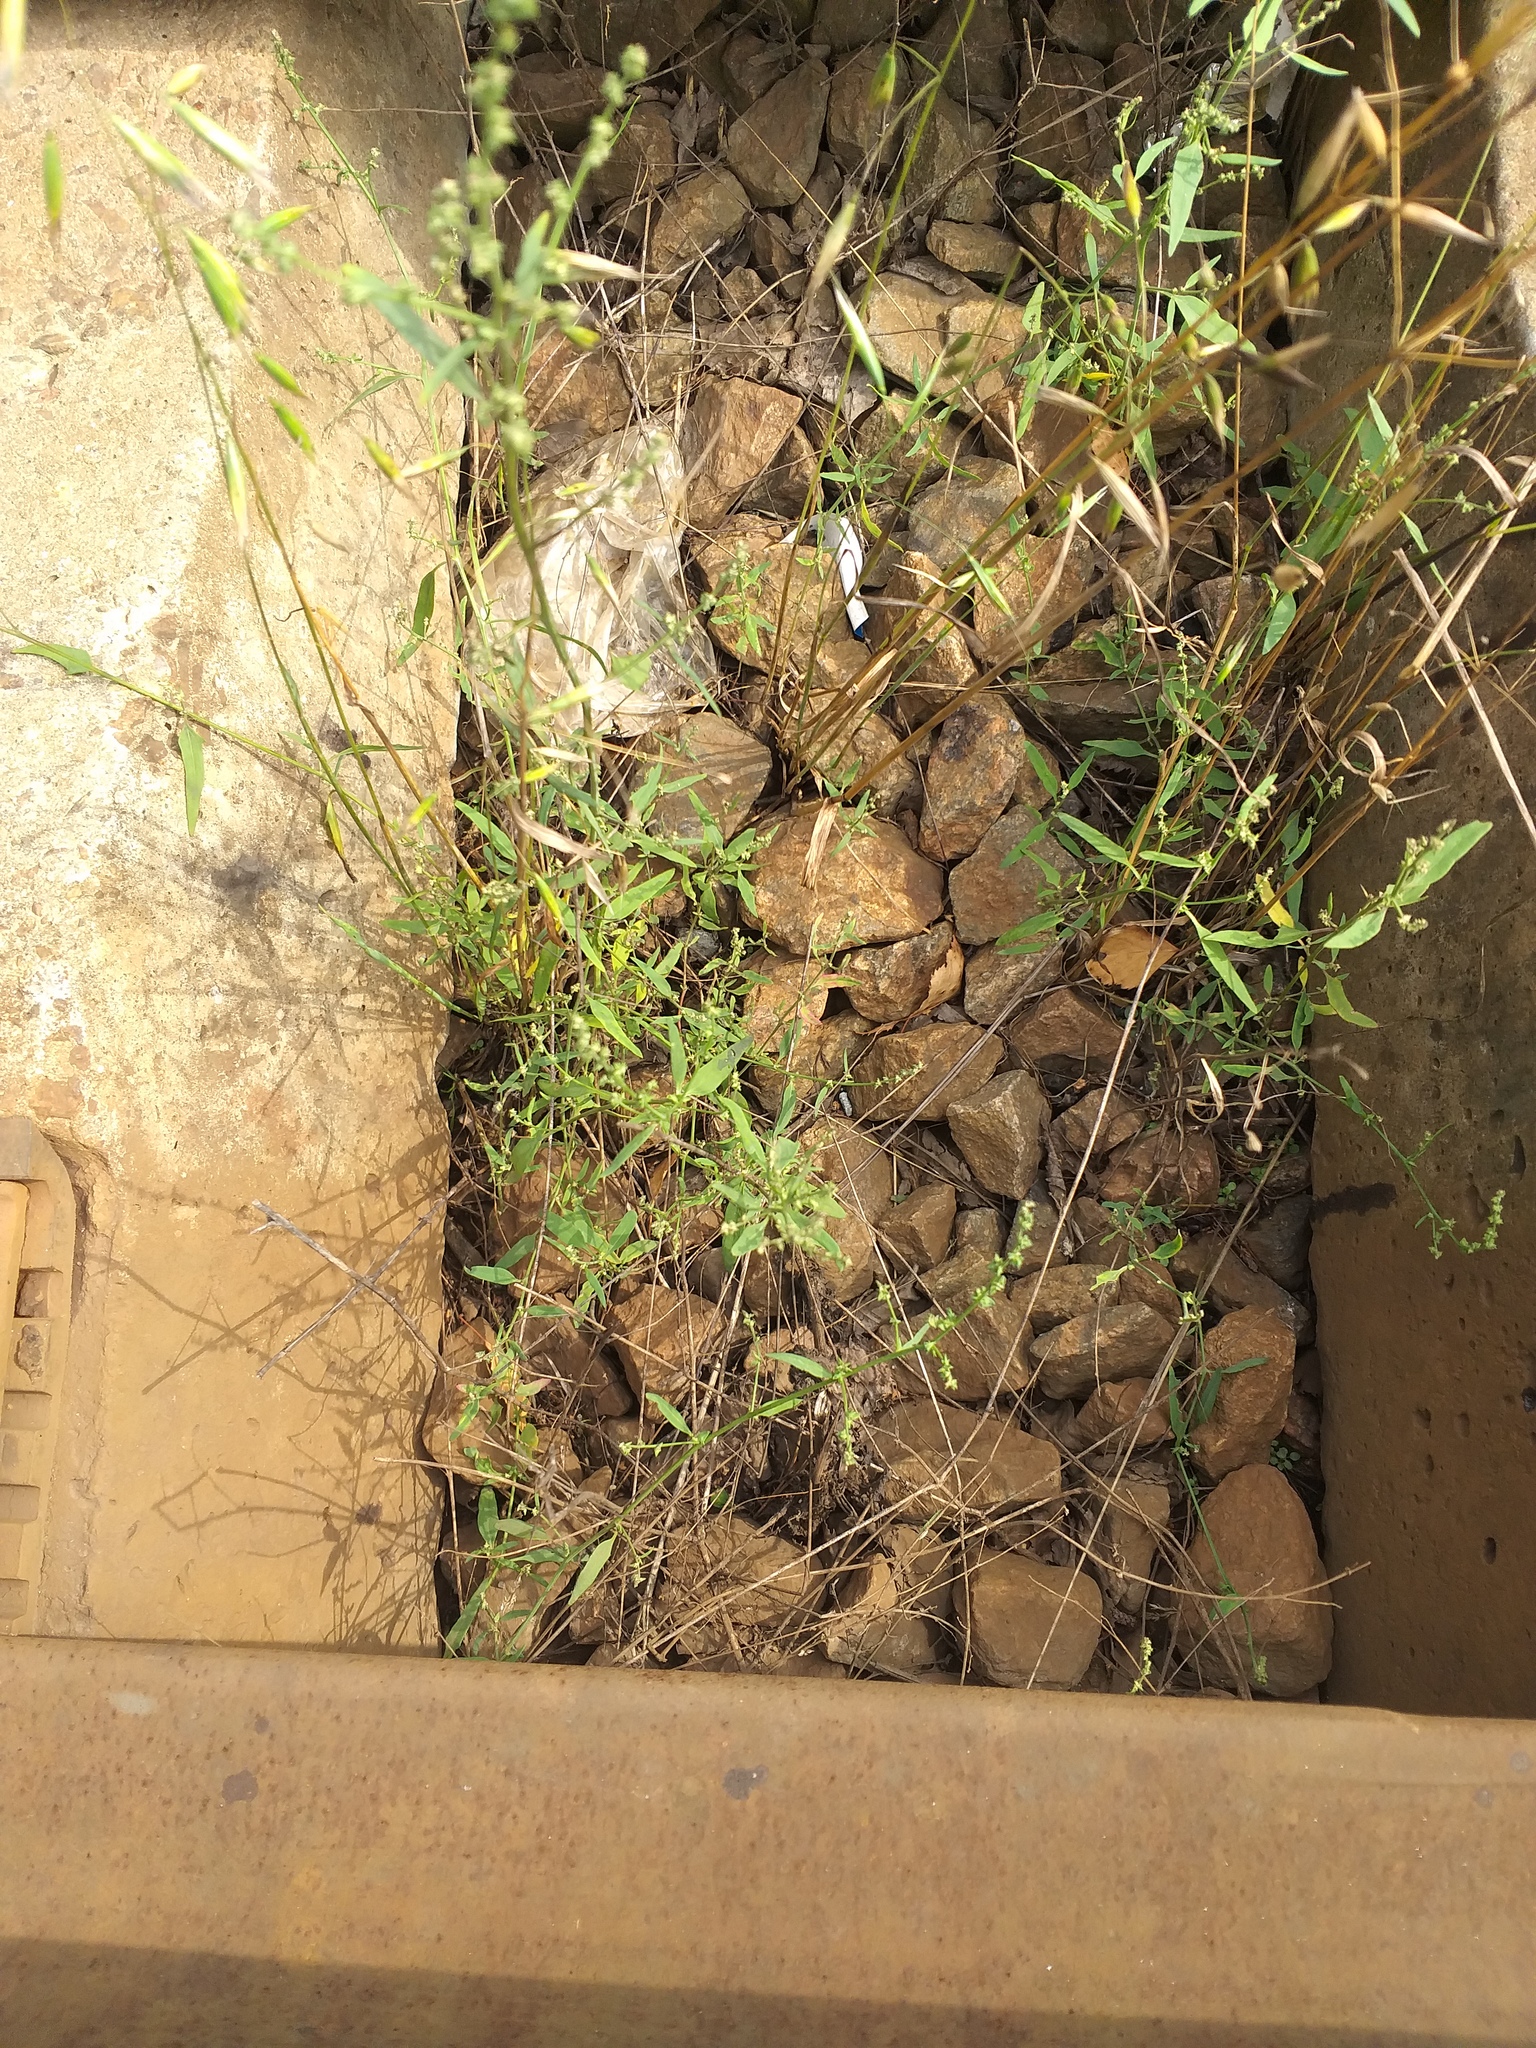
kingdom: Plantae
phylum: Tracheophyta
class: Magnoliopsida
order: Caryophyllales
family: Amaranthaceae
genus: Atriplex
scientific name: Atriplex patula
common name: Common orache
